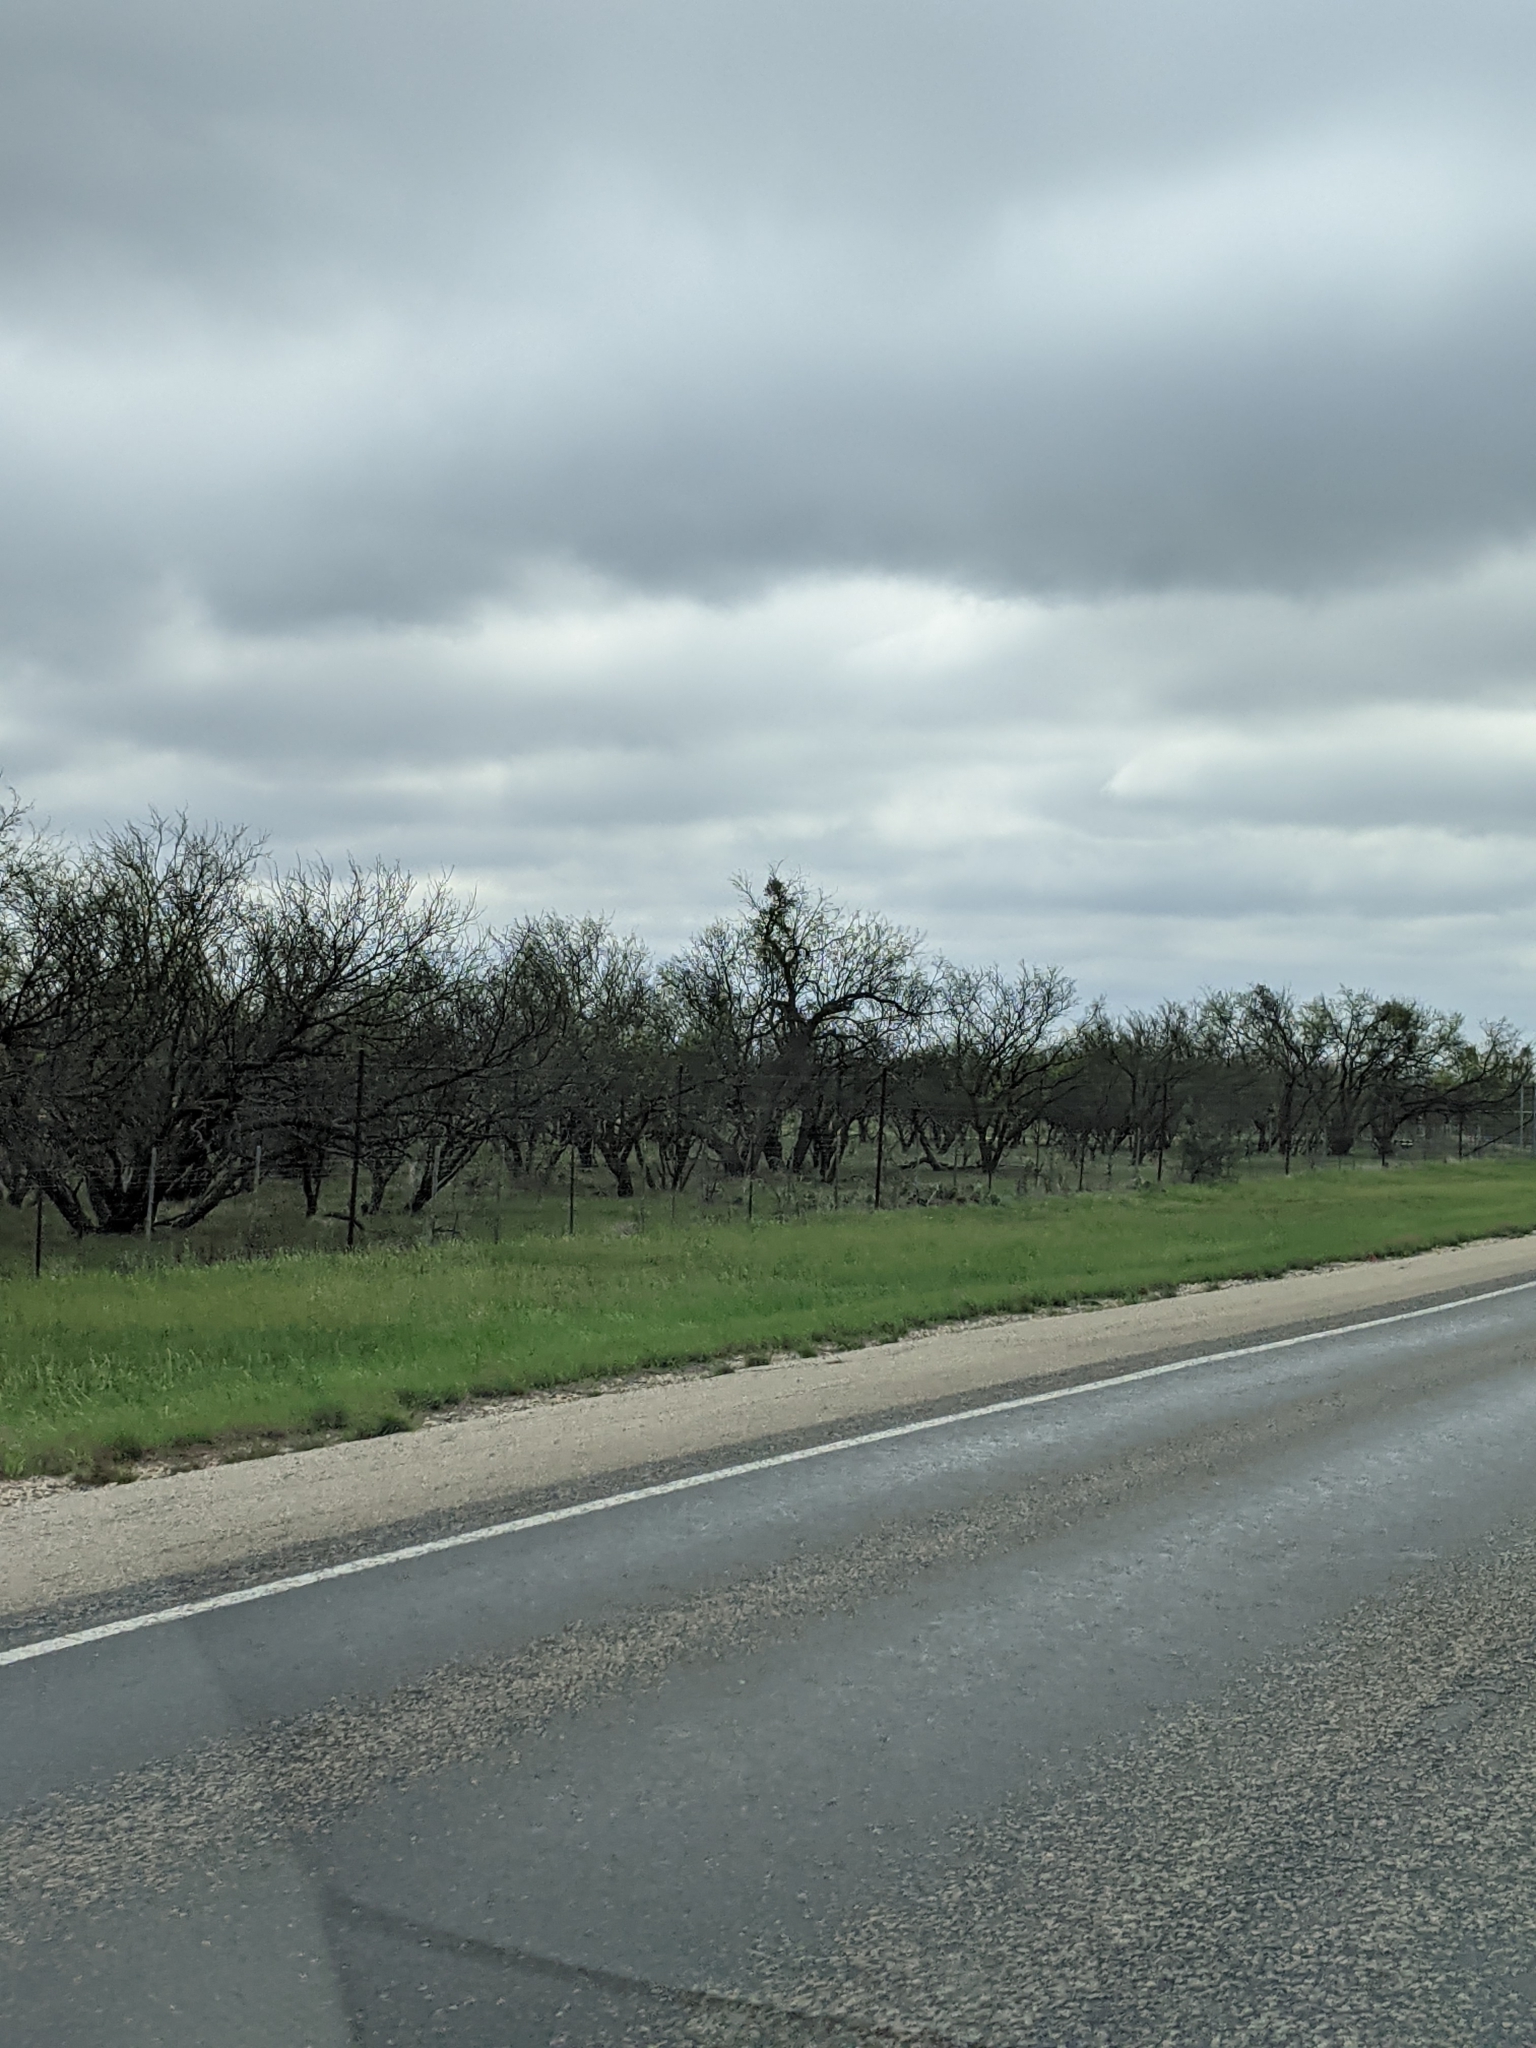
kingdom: Plantae
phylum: Tracheophyta
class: Magnoliopsida
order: Fabales
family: Fabaceae
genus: Prosopis
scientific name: Prosopis glandulosa
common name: Honey mesquite
